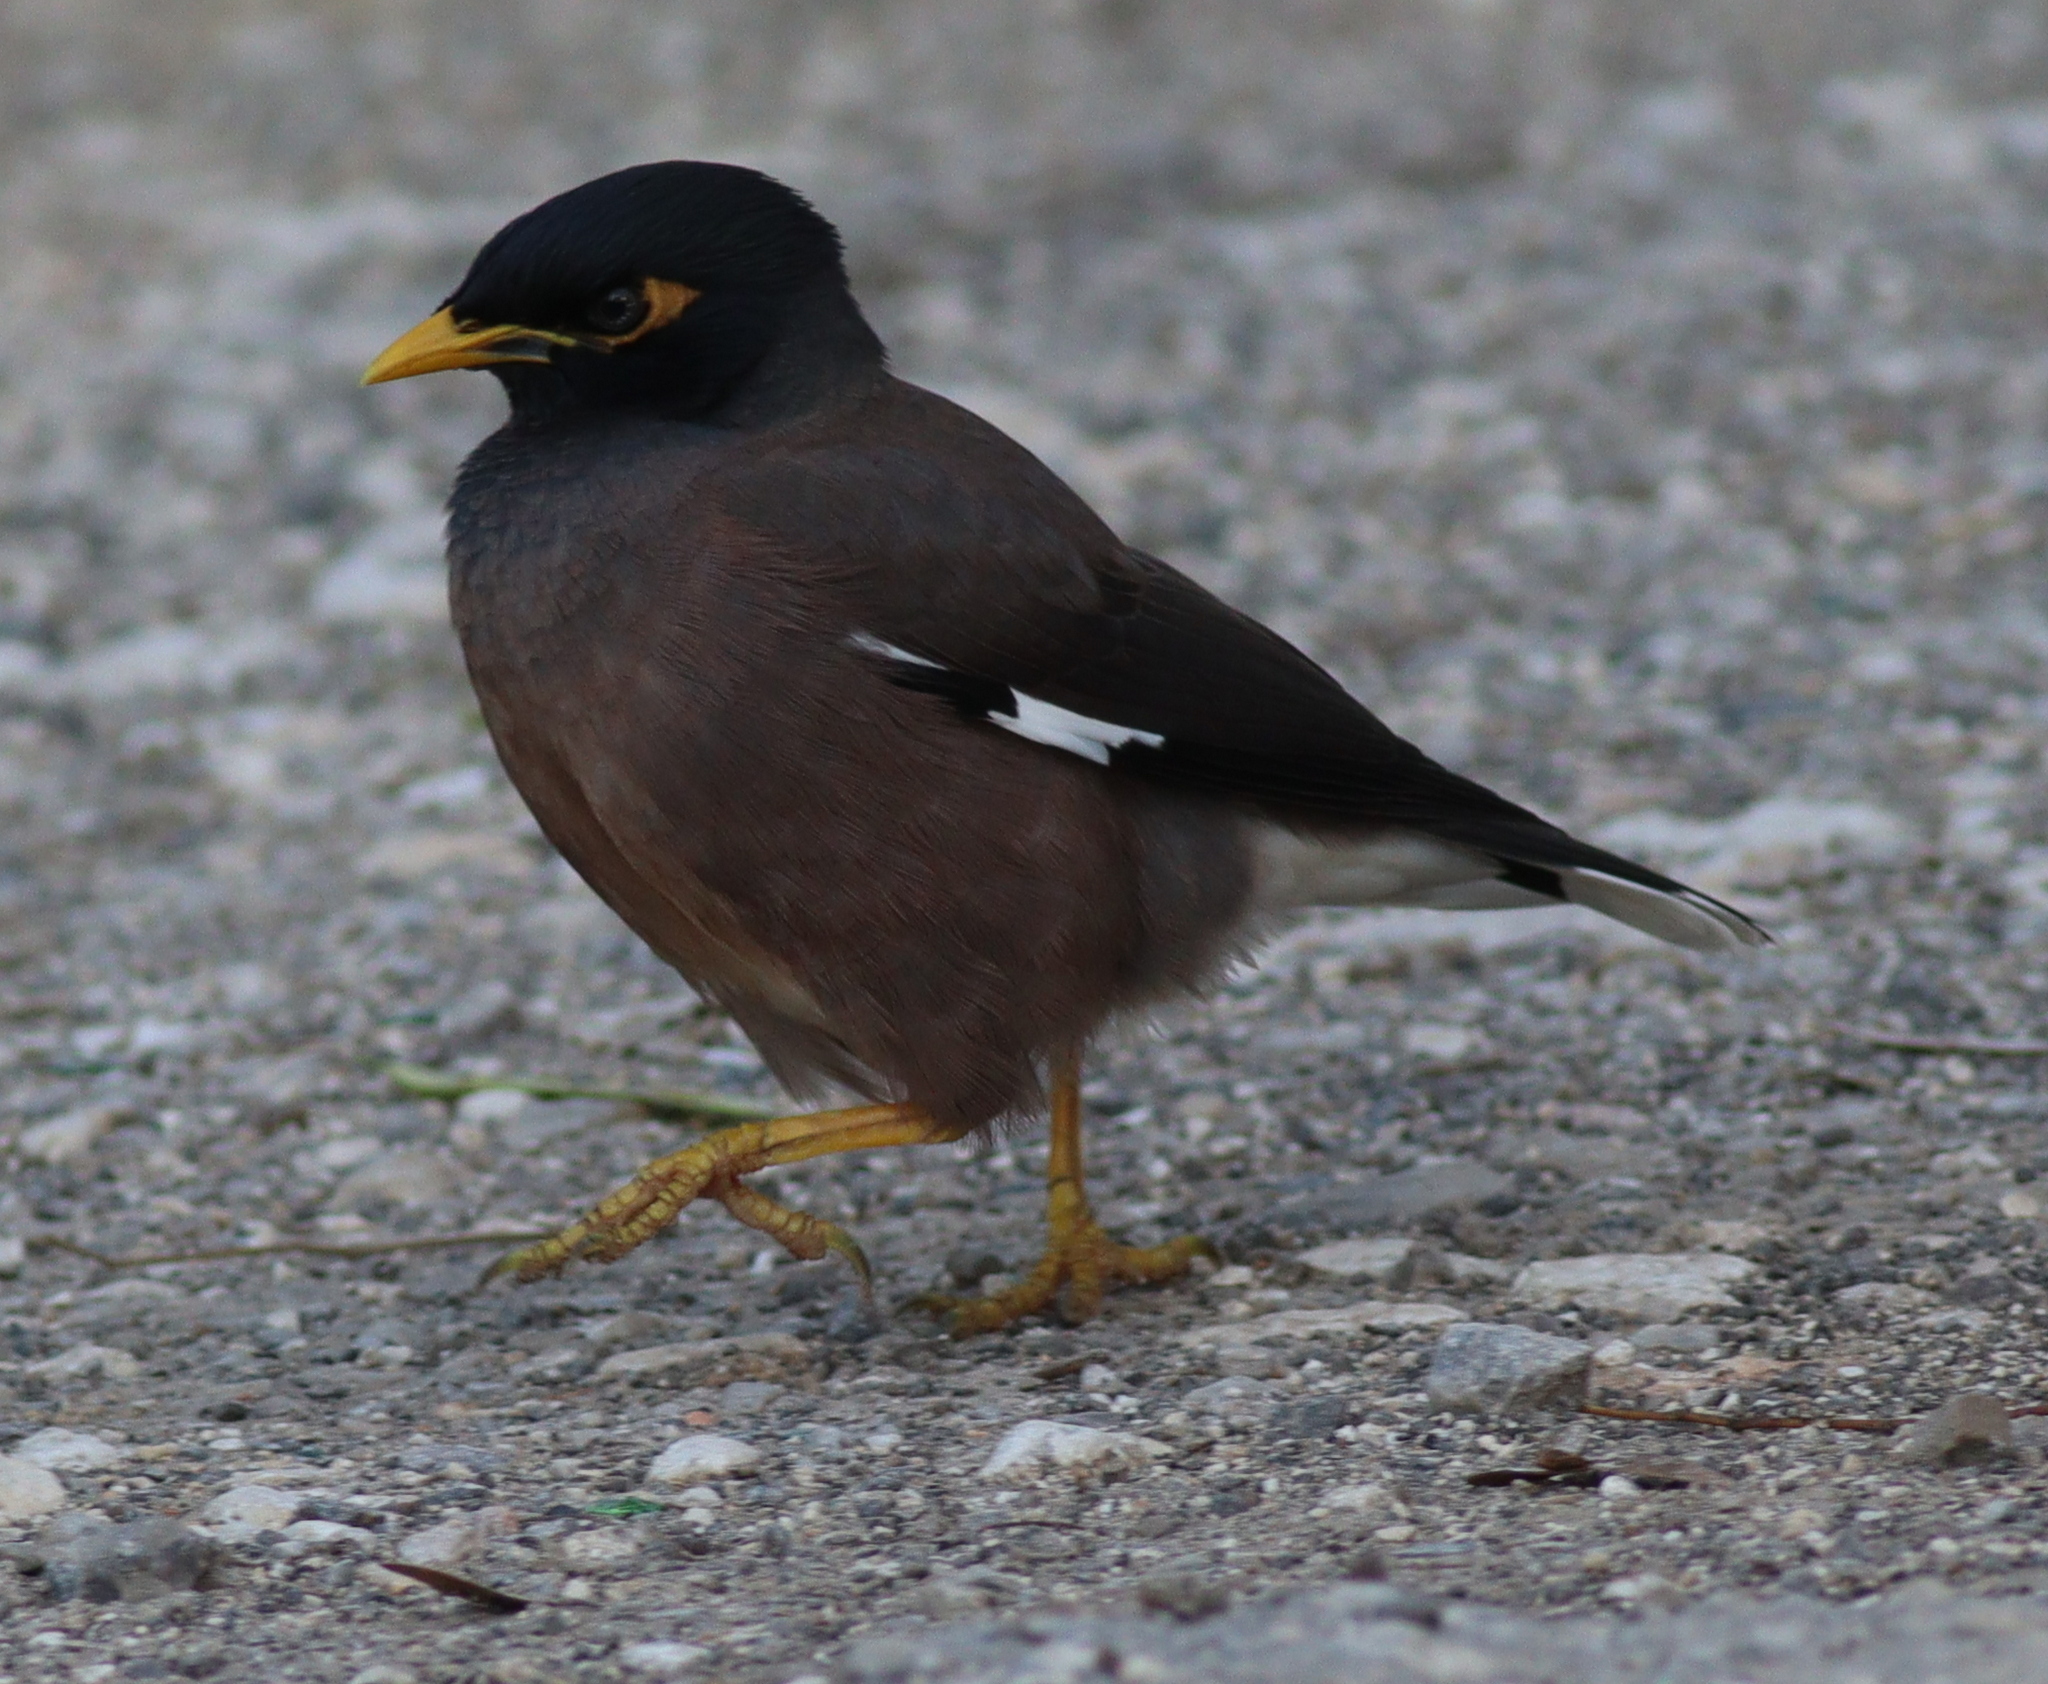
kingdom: Animalia
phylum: Chordata
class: Aves
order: Passeriformes
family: Sturnidae
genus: Acridotheres
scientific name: Acridotheres tristis
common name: Common myna
